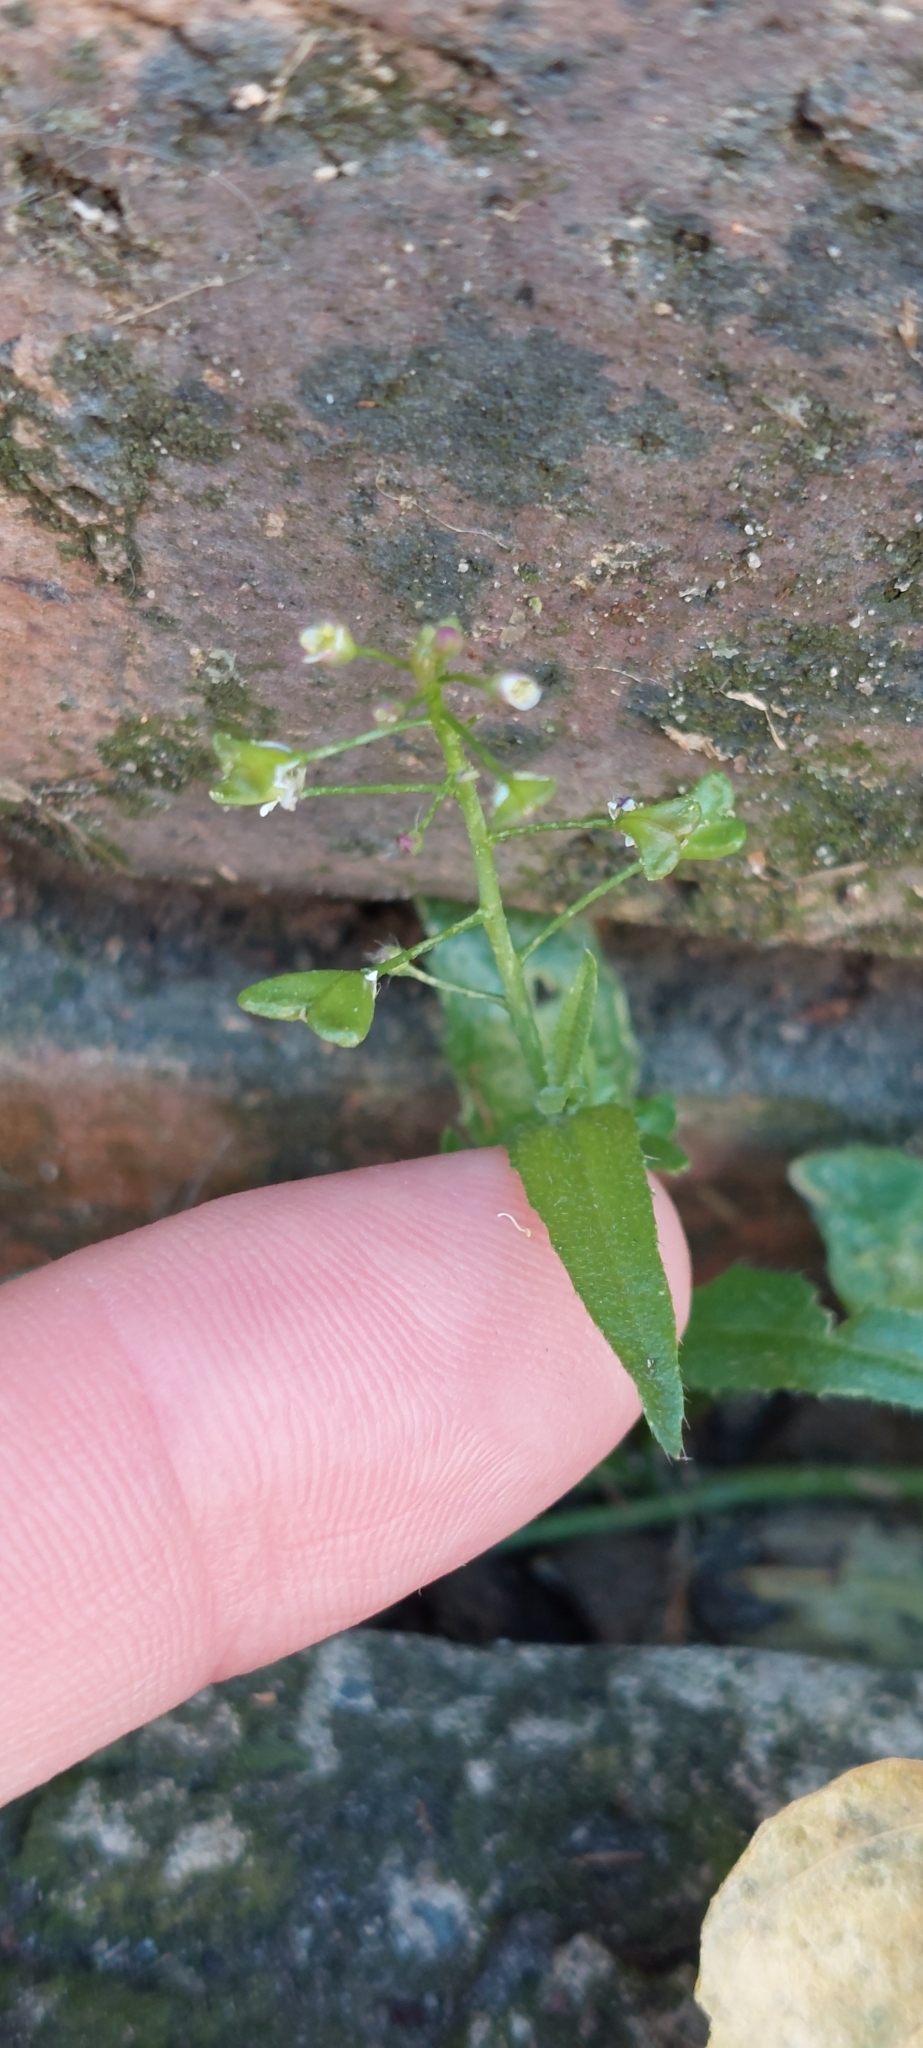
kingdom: Plantae
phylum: Tracheophyta
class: Magnoliopsida
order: Brassicales
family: Brassicaceae
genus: Capsella
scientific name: Capsella bursa-pastoris
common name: Shepherd's purse
